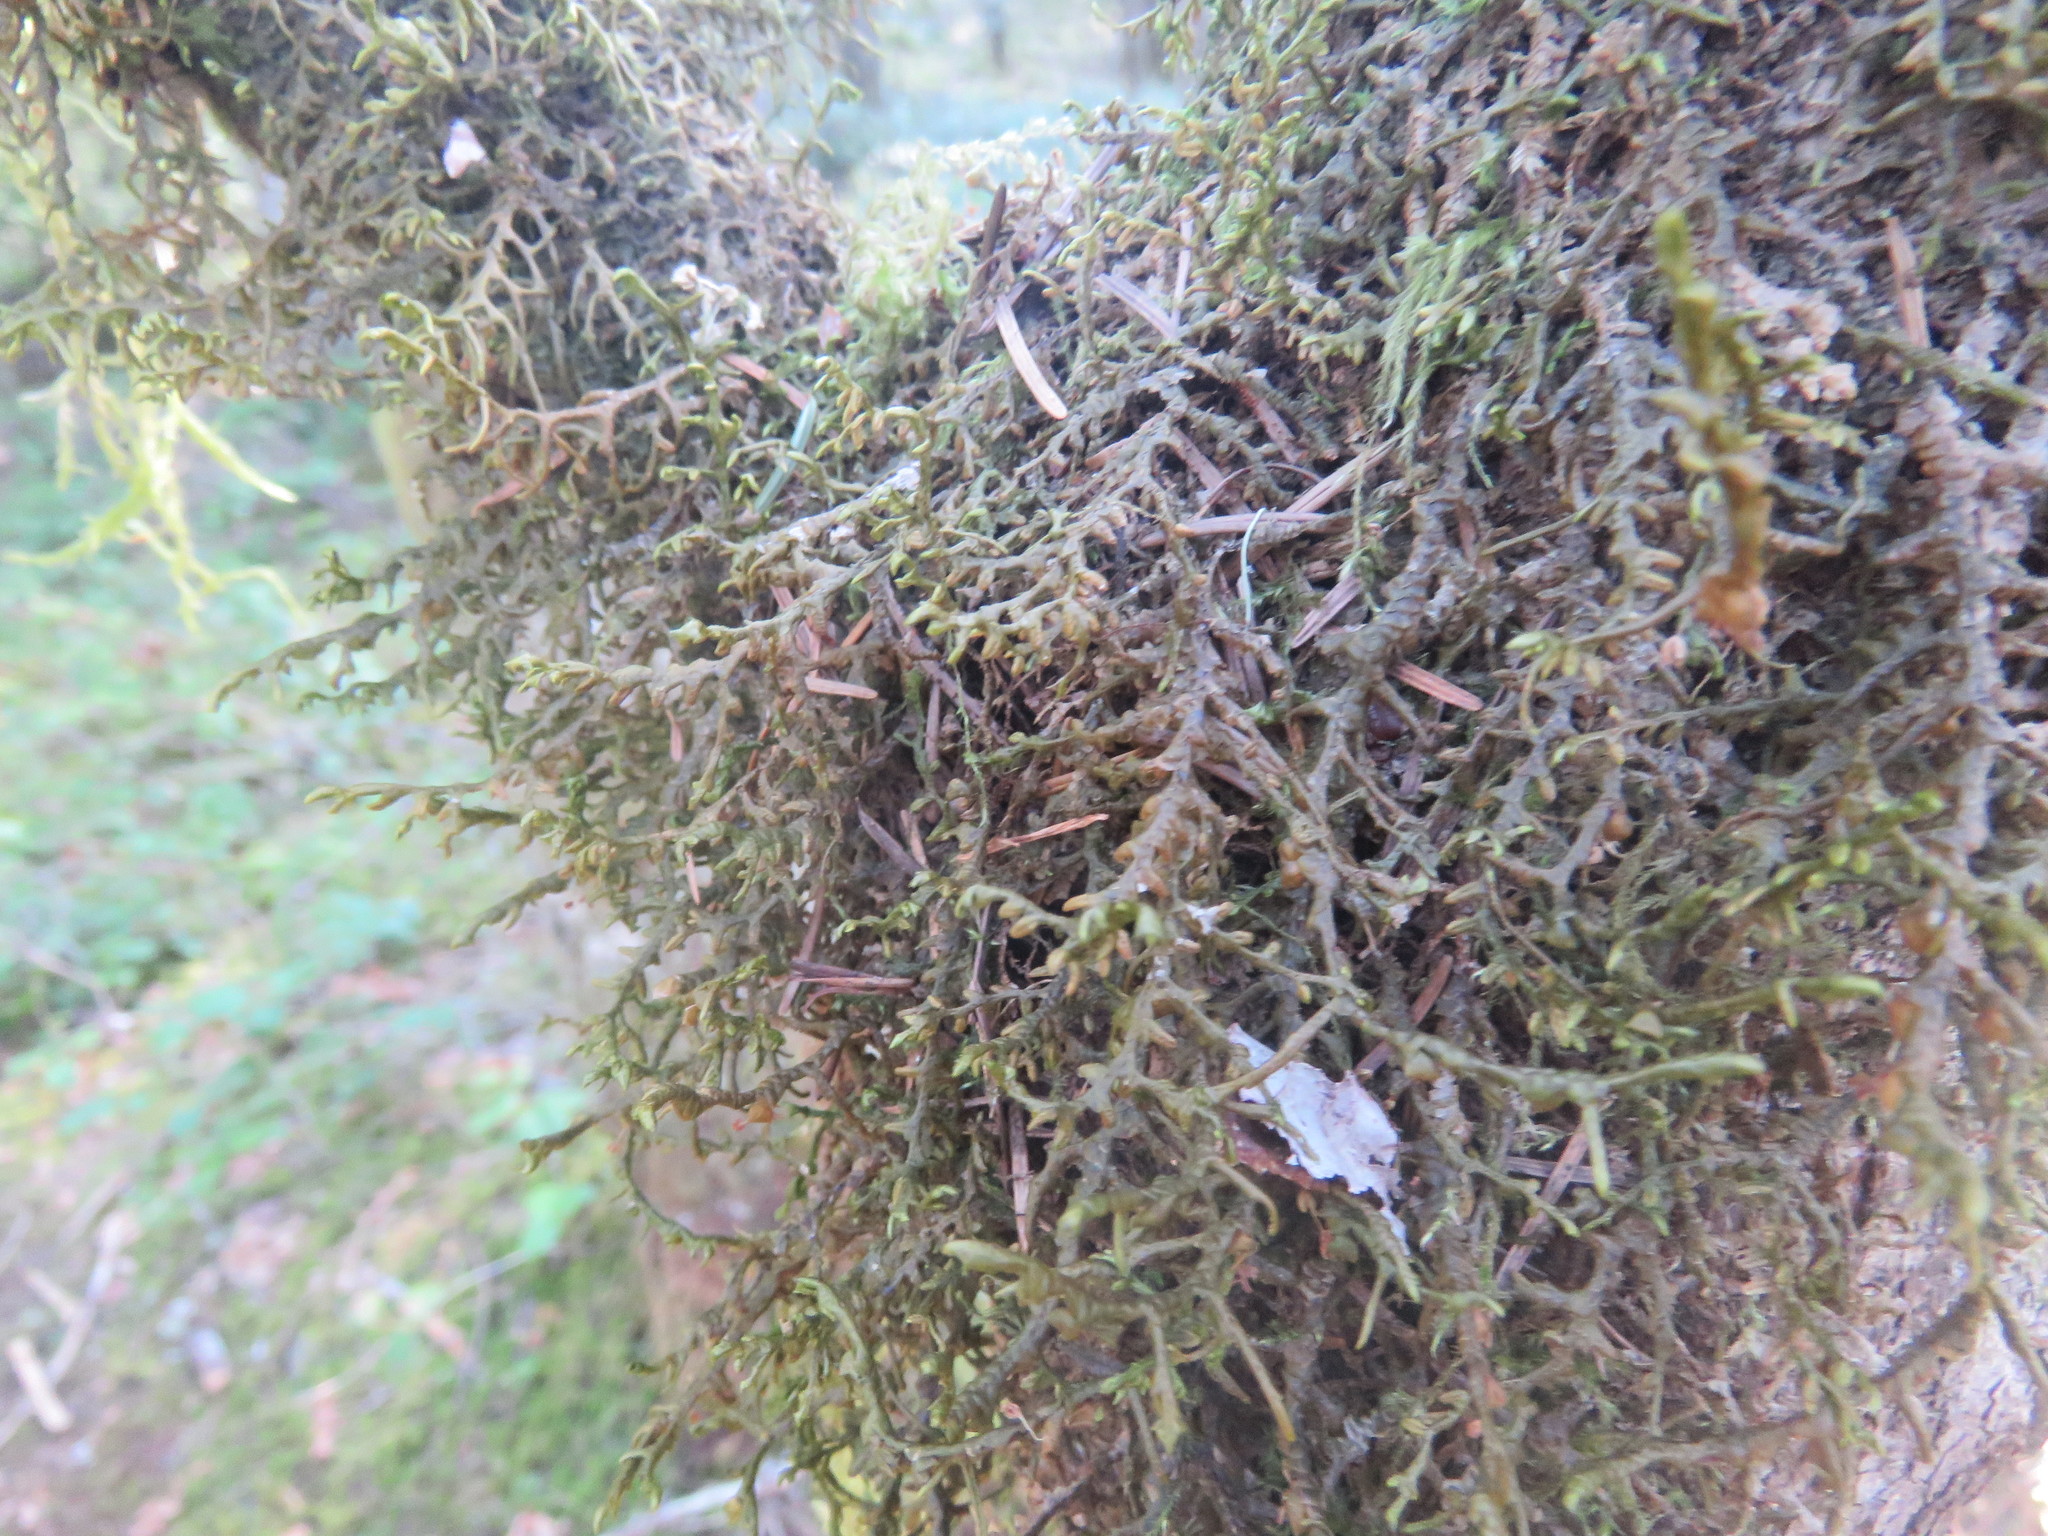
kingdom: Plantae
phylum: Marchantiophyta
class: Jungermanniopsida
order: Porellales
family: Porellaceae
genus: Porella
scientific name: Porella navicularis
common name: Tree ruffle liverwort
